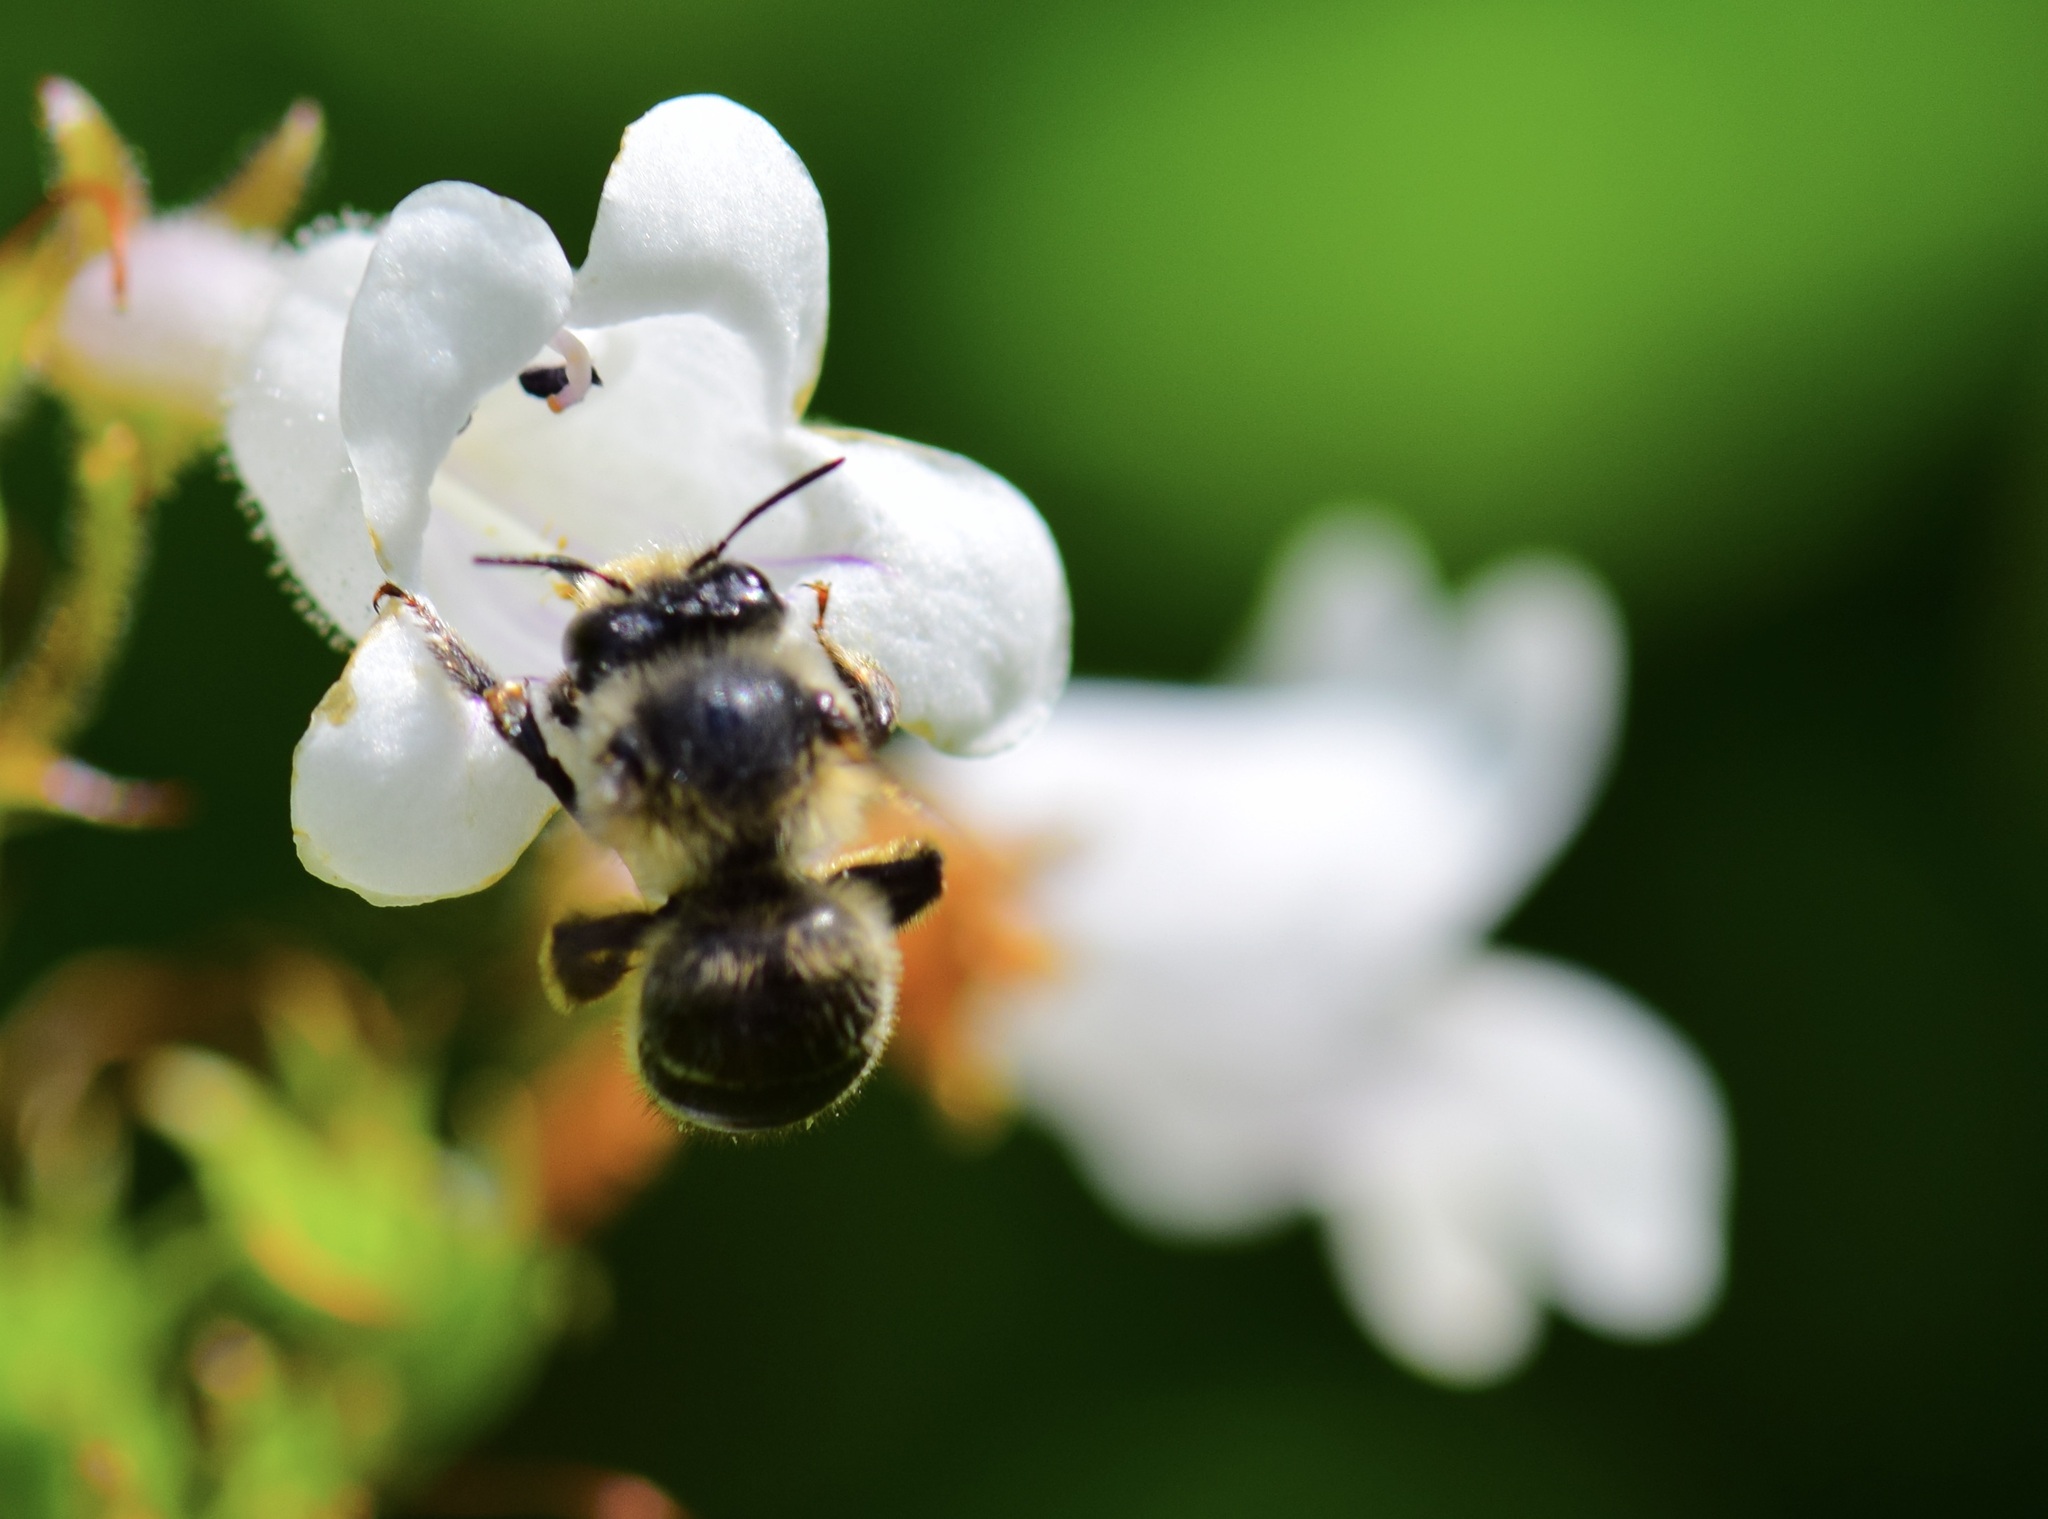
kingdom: Animalia
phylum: Arthropoda
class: Insecta
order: Hymenoptera
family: Apidae
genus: Anthophora
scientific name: Anthophora terminalis
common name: Orange-tipped wood-digger bee
